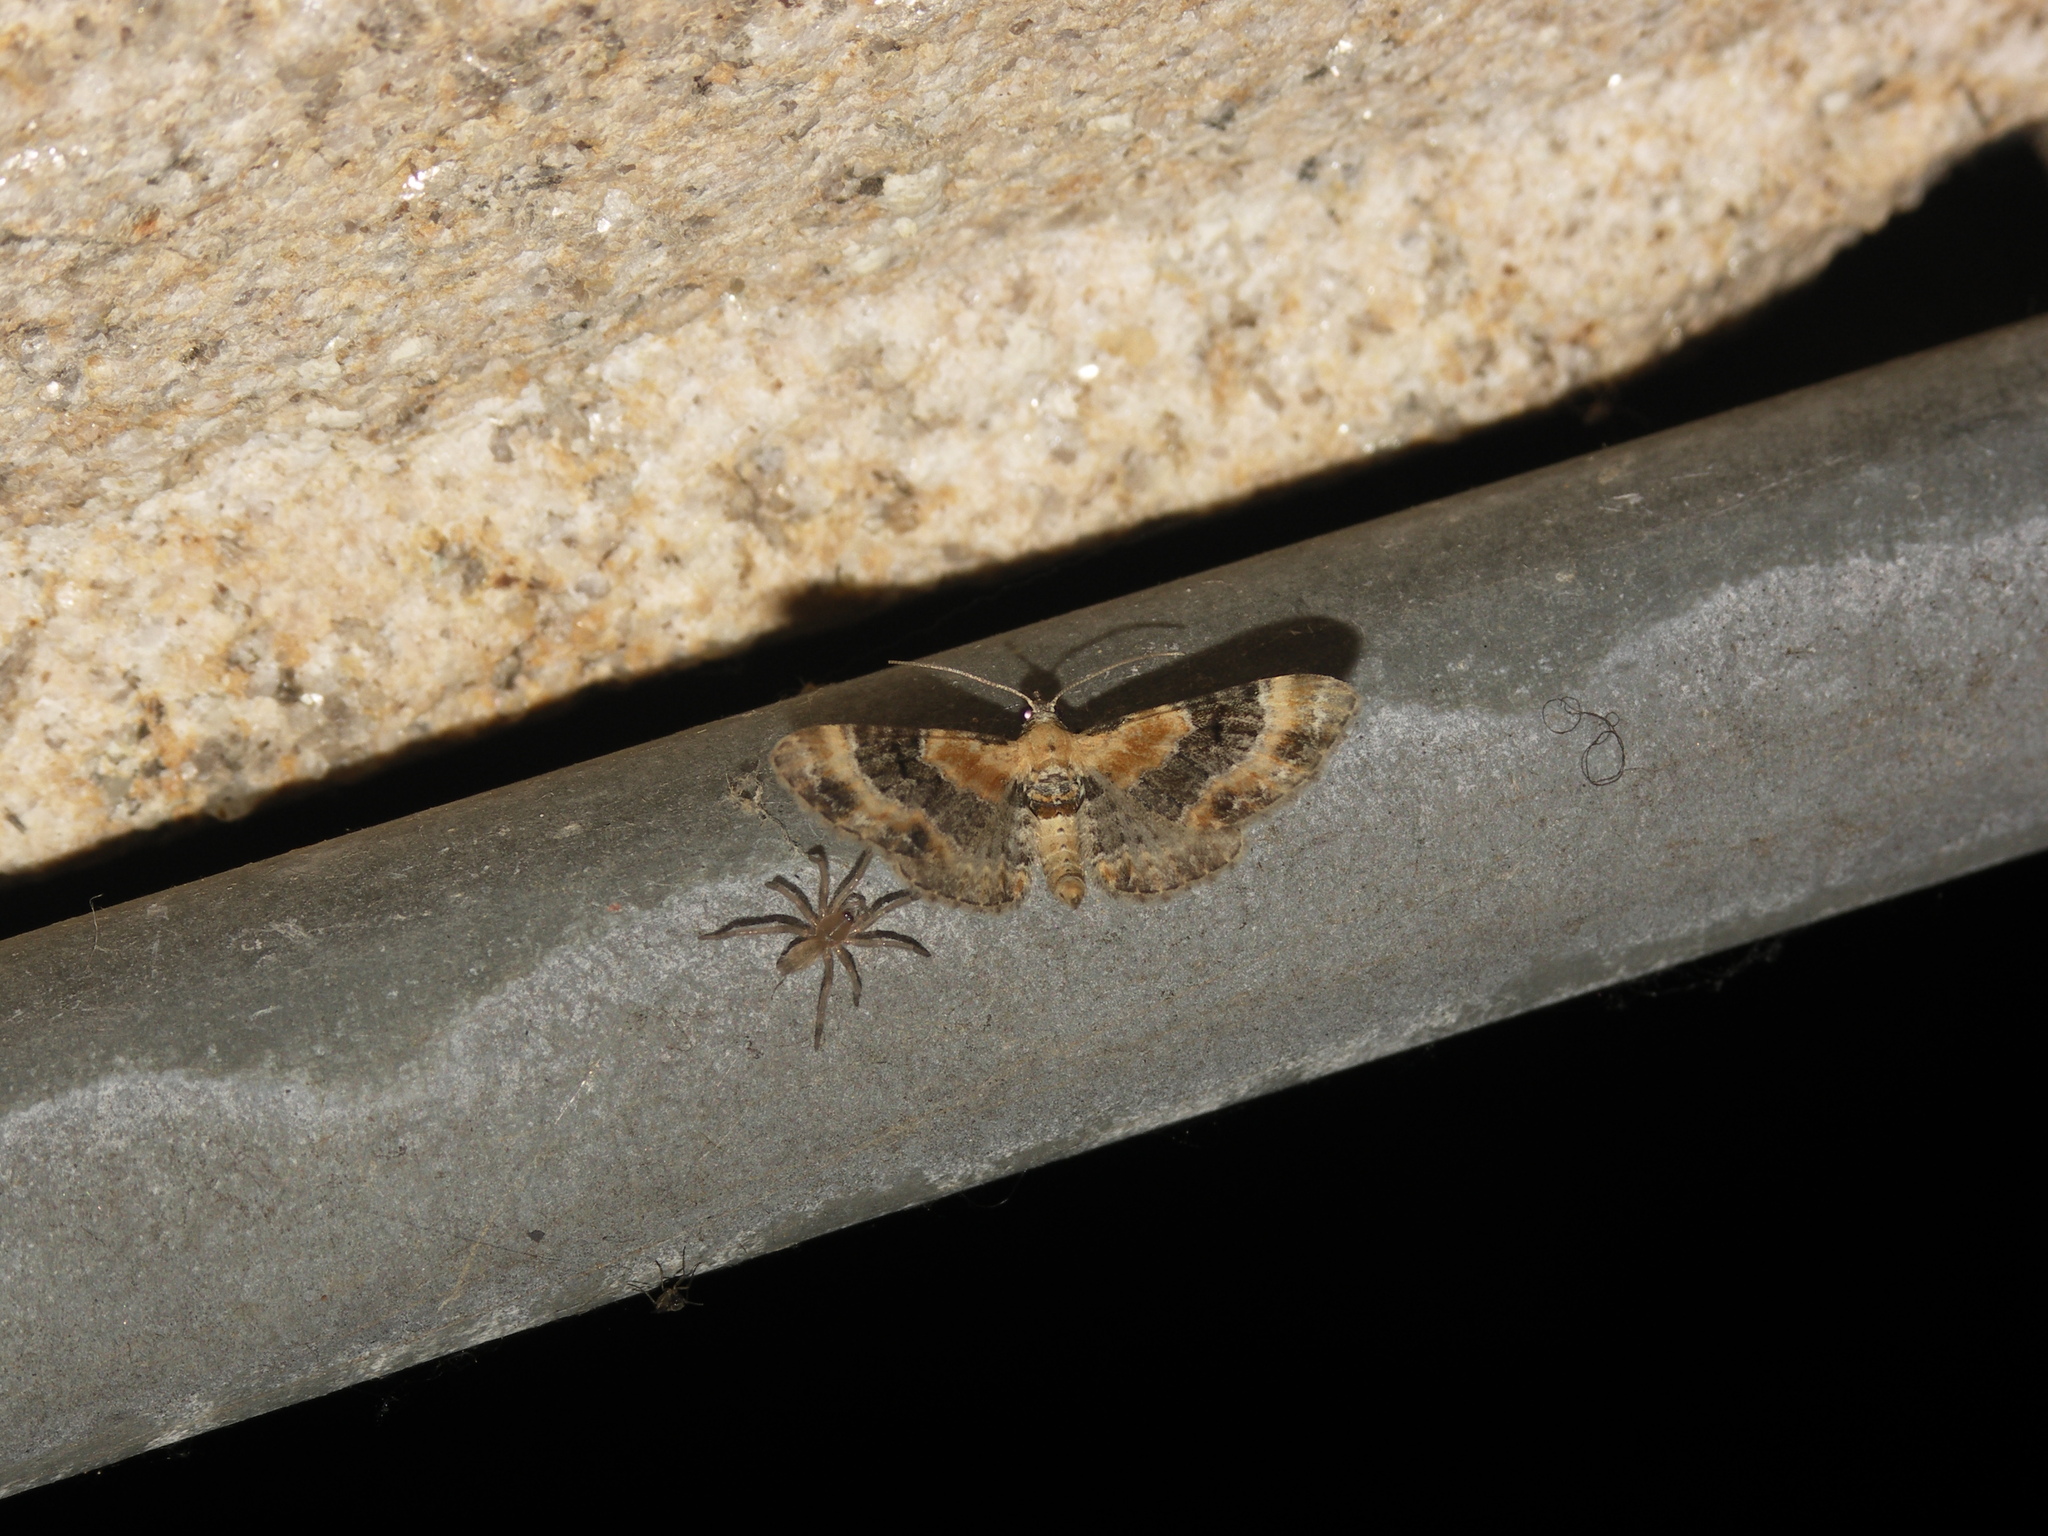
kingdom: Animalia
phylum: Arthropoda
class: Insecta
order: Lepidoptera
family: Geometridae
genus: Eupithecia
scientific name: Eupithecia linariata
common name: Toadflax pug
